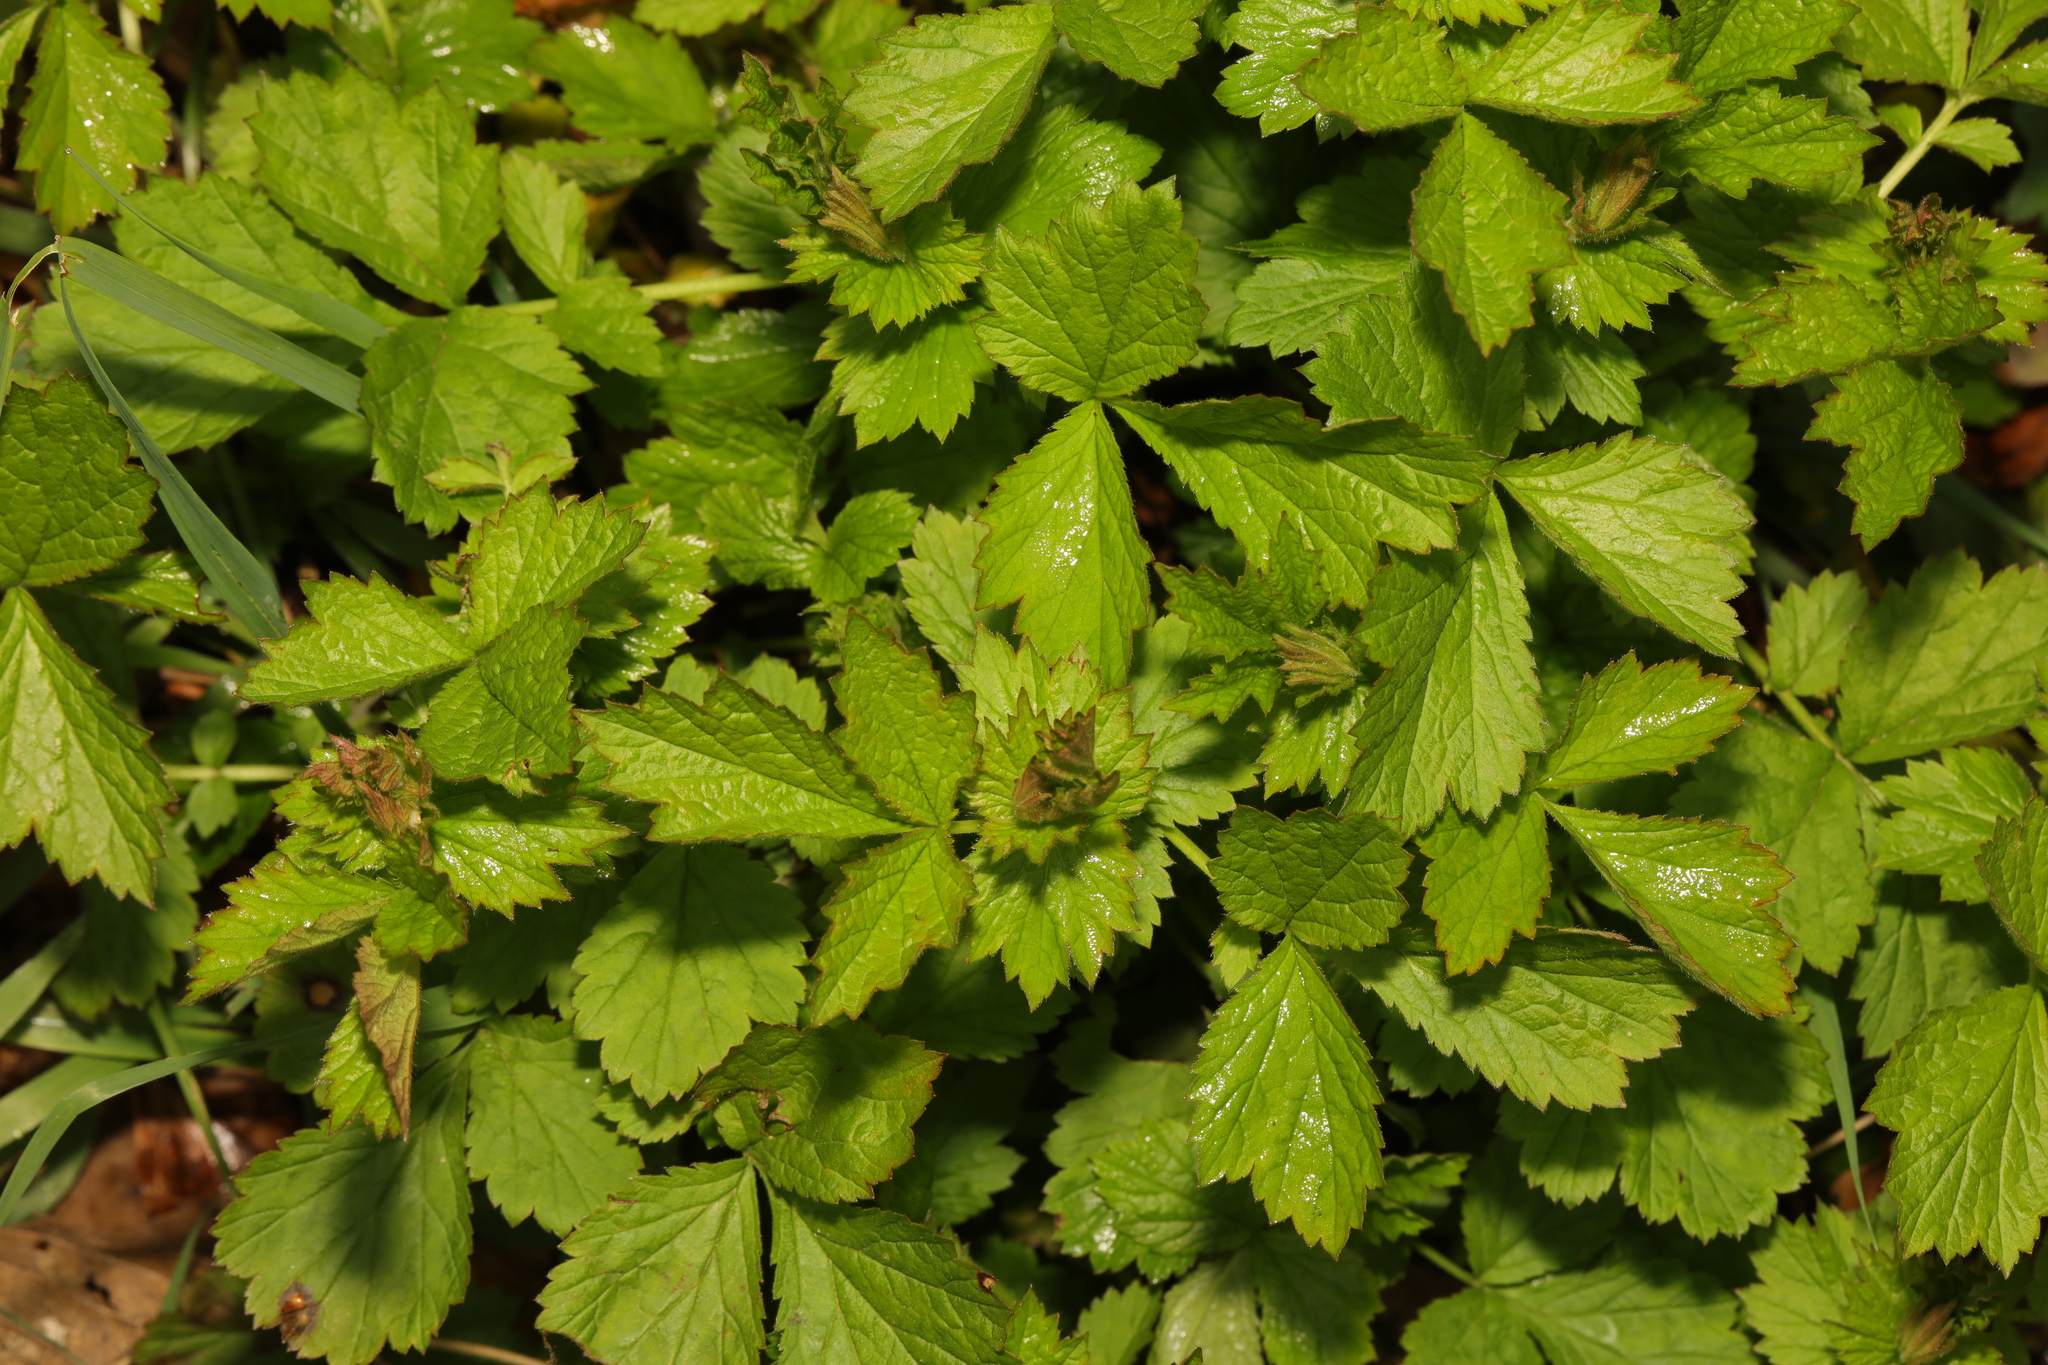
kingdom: Plantae
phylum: Tracheophyta
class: Magnoliopsida
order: Rosales
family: Rosaceae
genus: Geum
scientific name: Geum urbanum
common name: Wood avens
